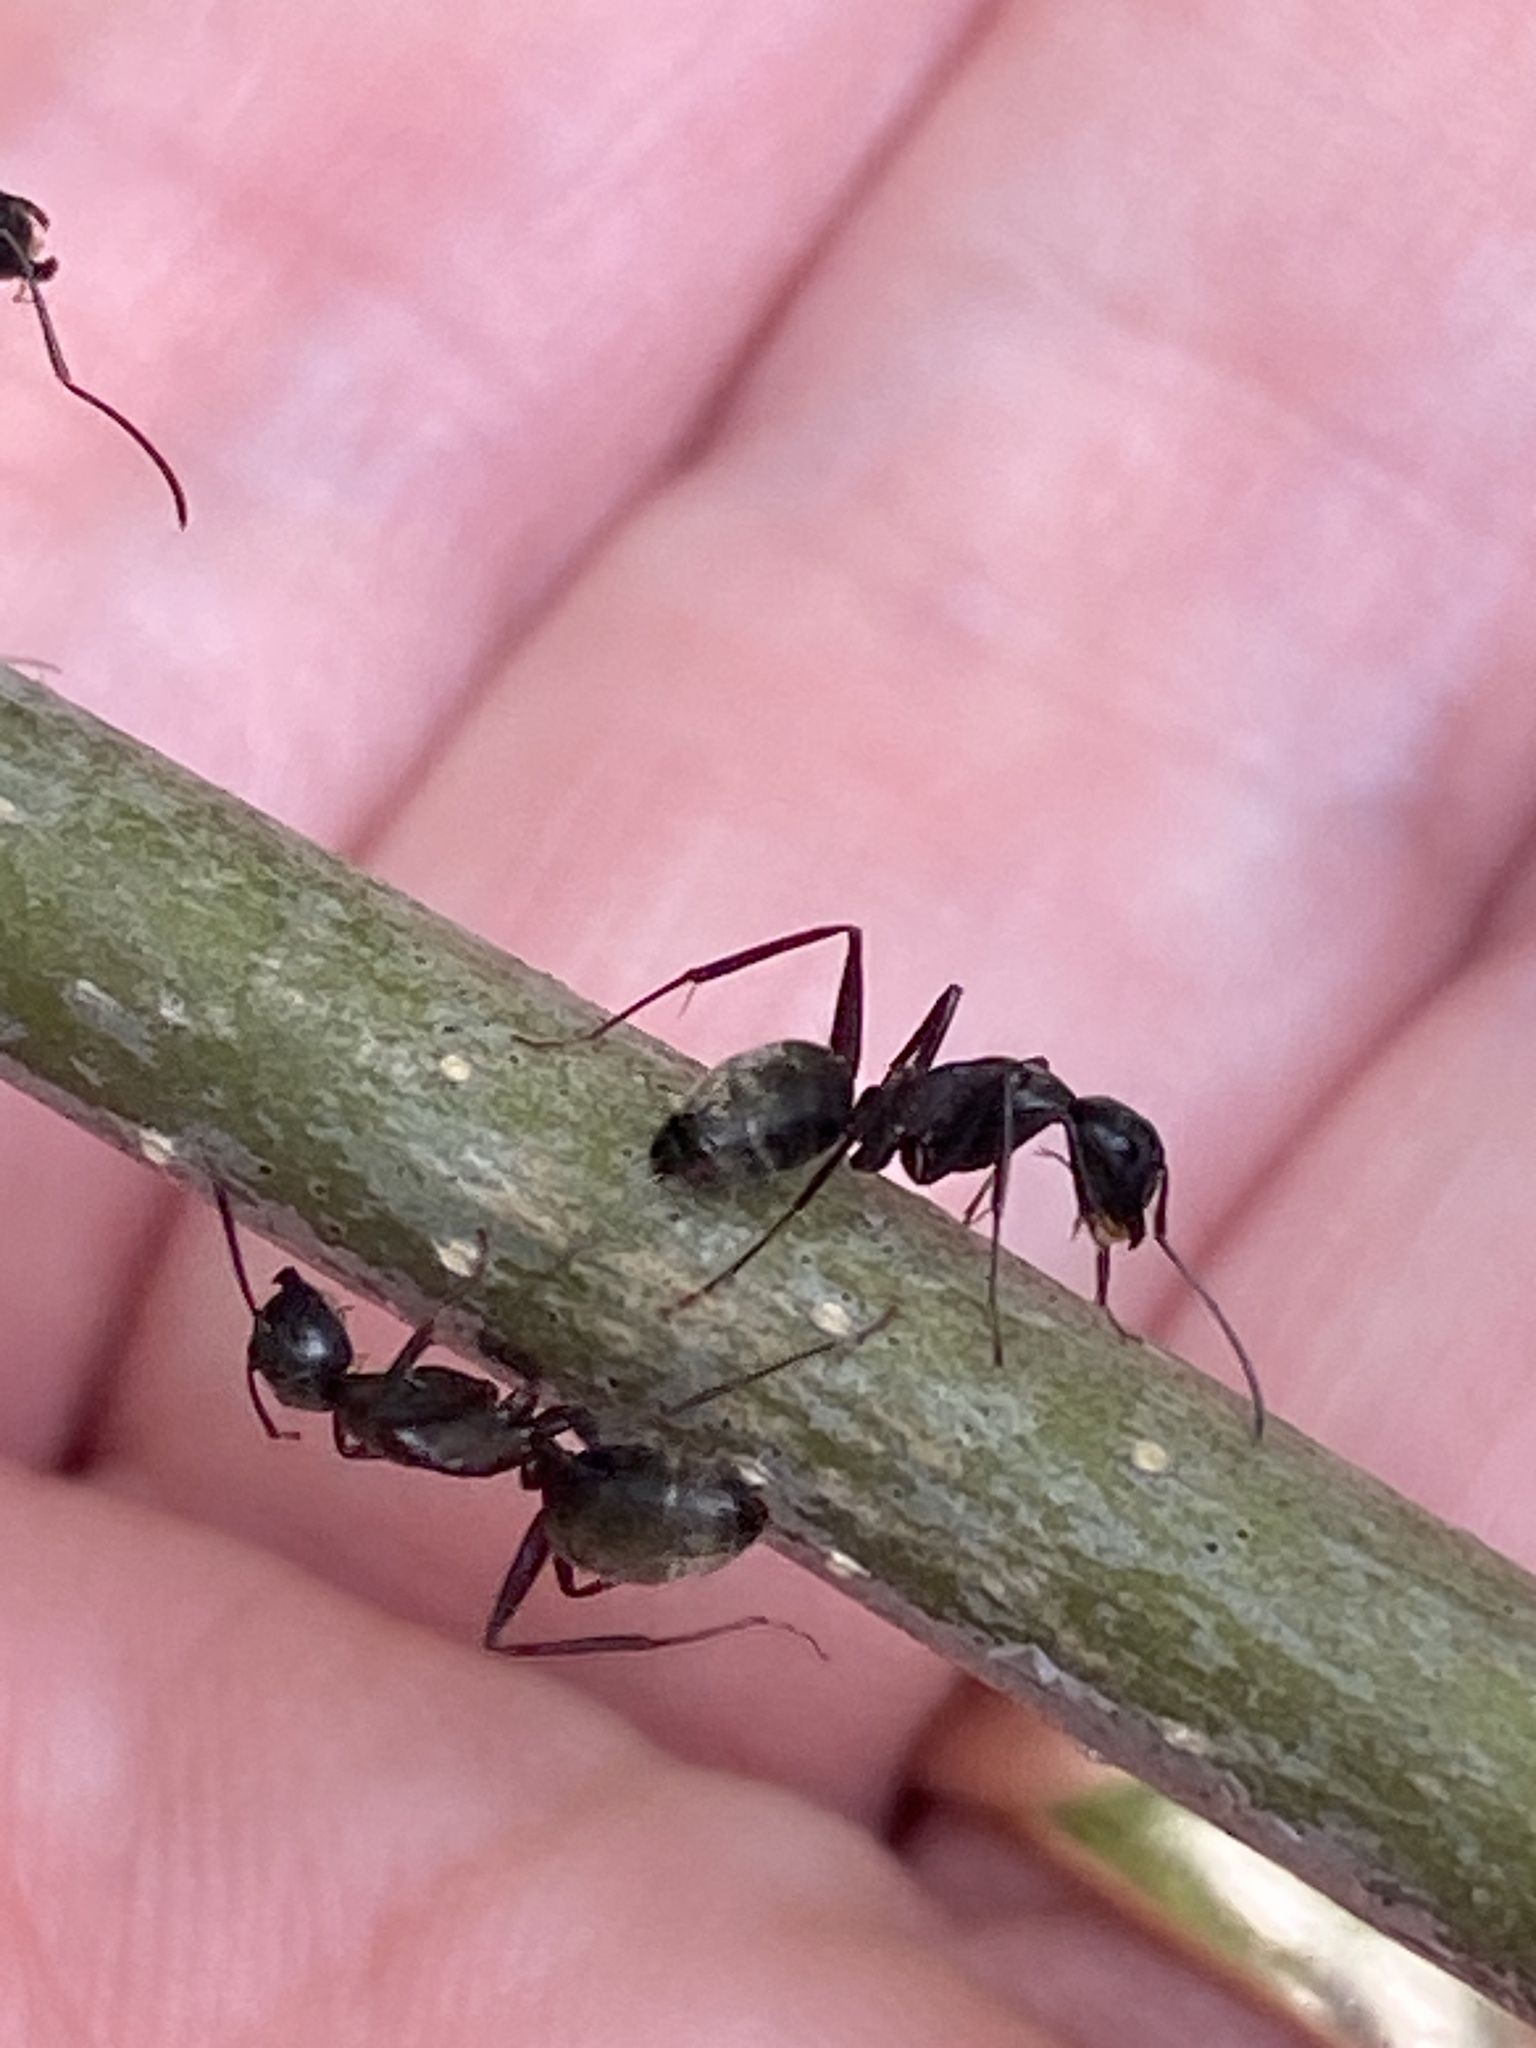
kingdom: Animalia
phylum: Arthropoda
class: Insecta
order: Hymenoptera
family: Formicidae
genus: Camponotus
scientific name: Camponotus pennsylvanicus
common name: Black carpenter ant
